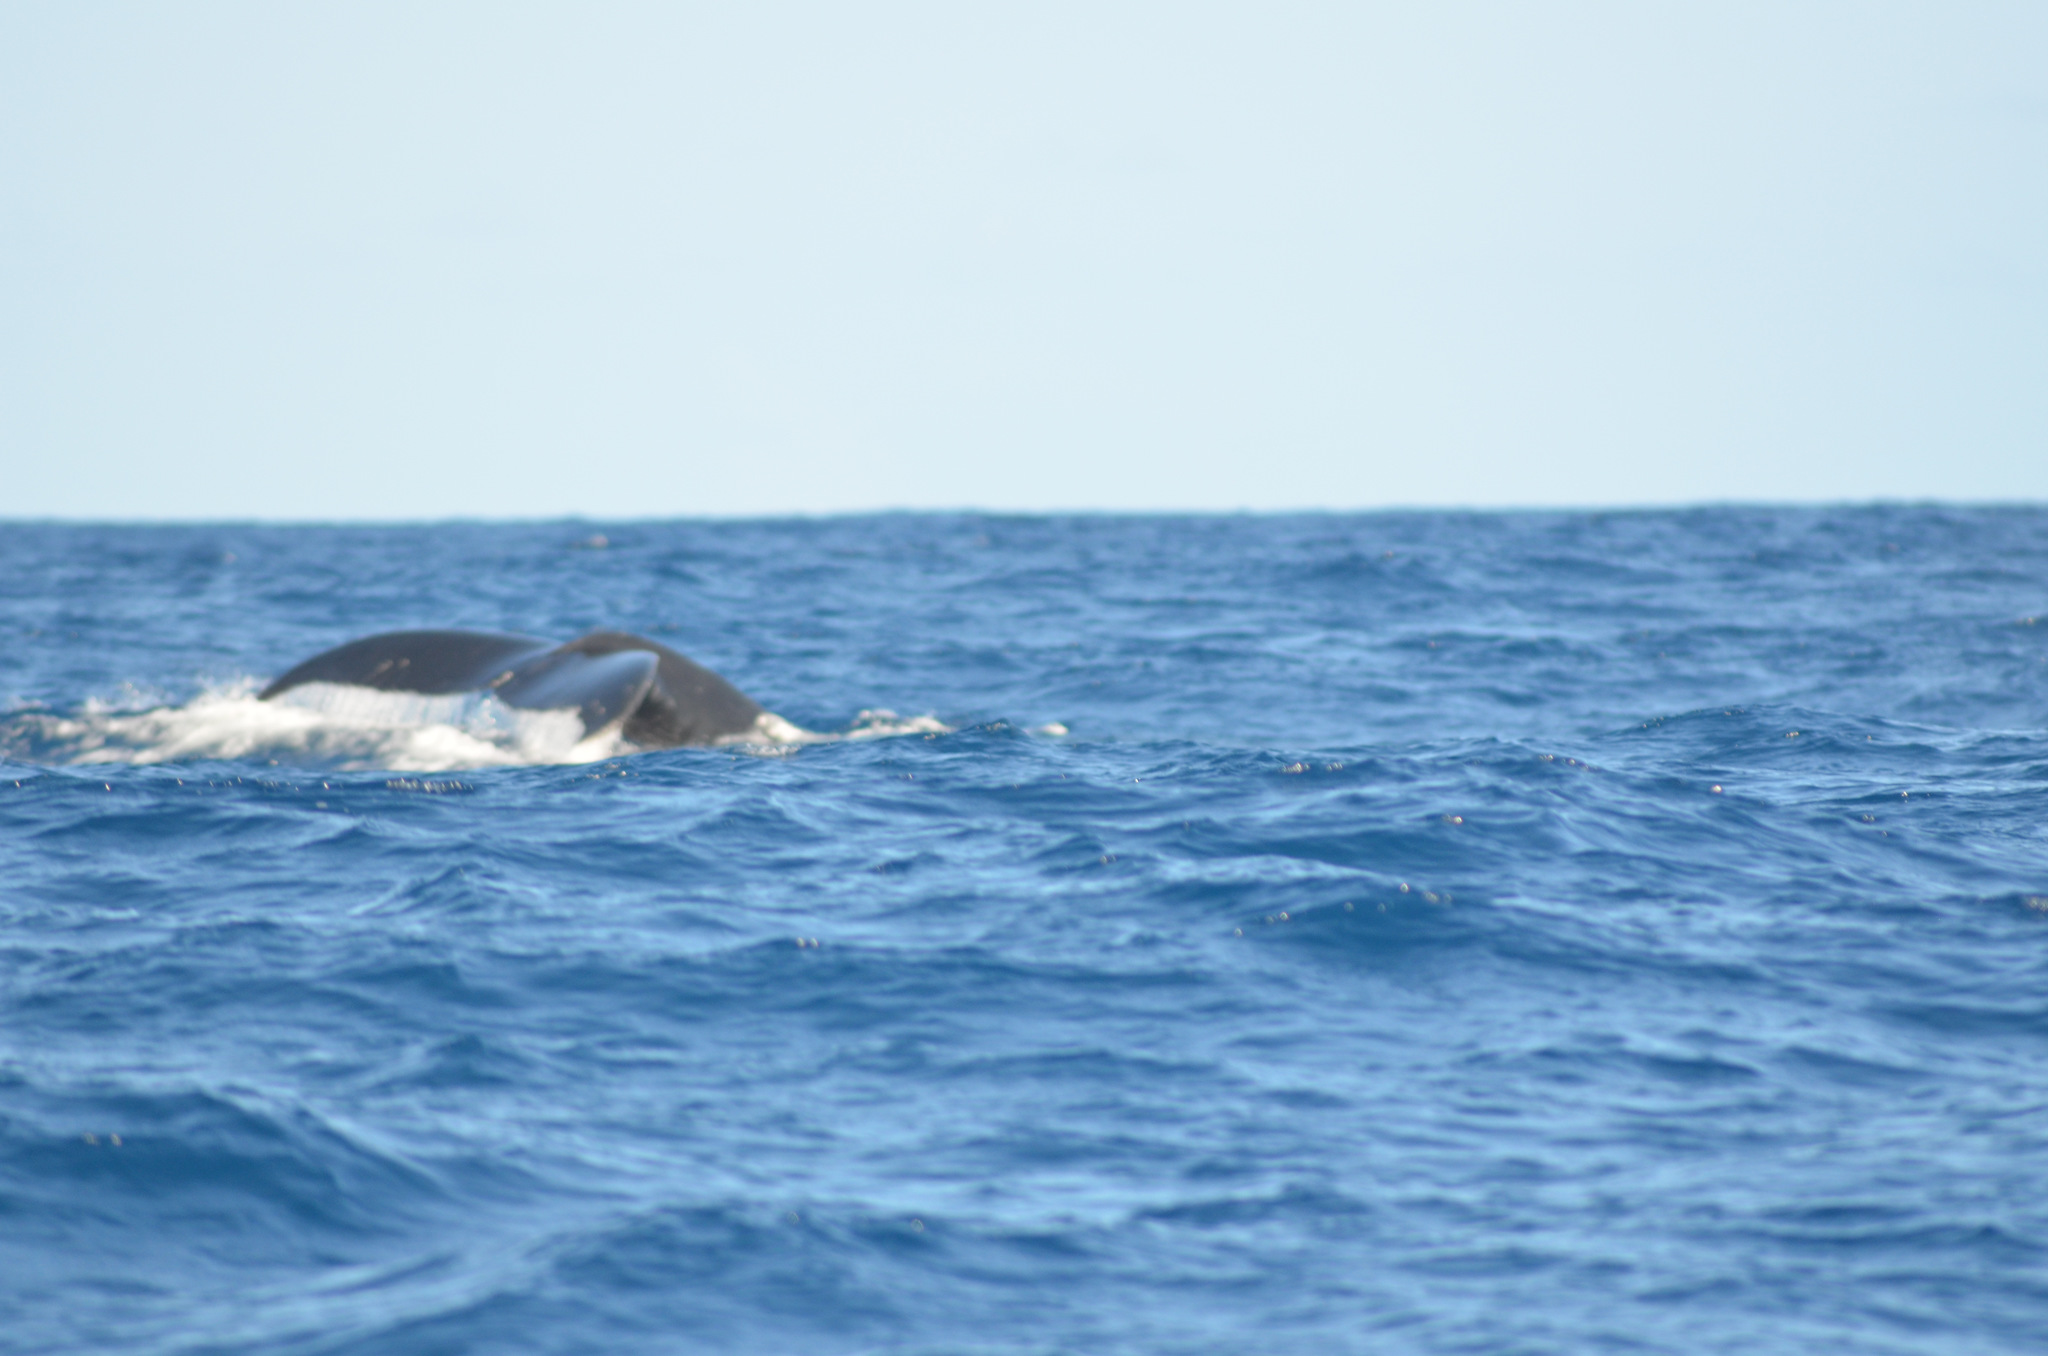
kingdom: Animalia
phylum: Chordata
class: Mammalia
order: Cetacea
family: Balaenopteridae
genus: Megaptera
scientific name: Megaptera novaeangliae
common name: Humpback whale
